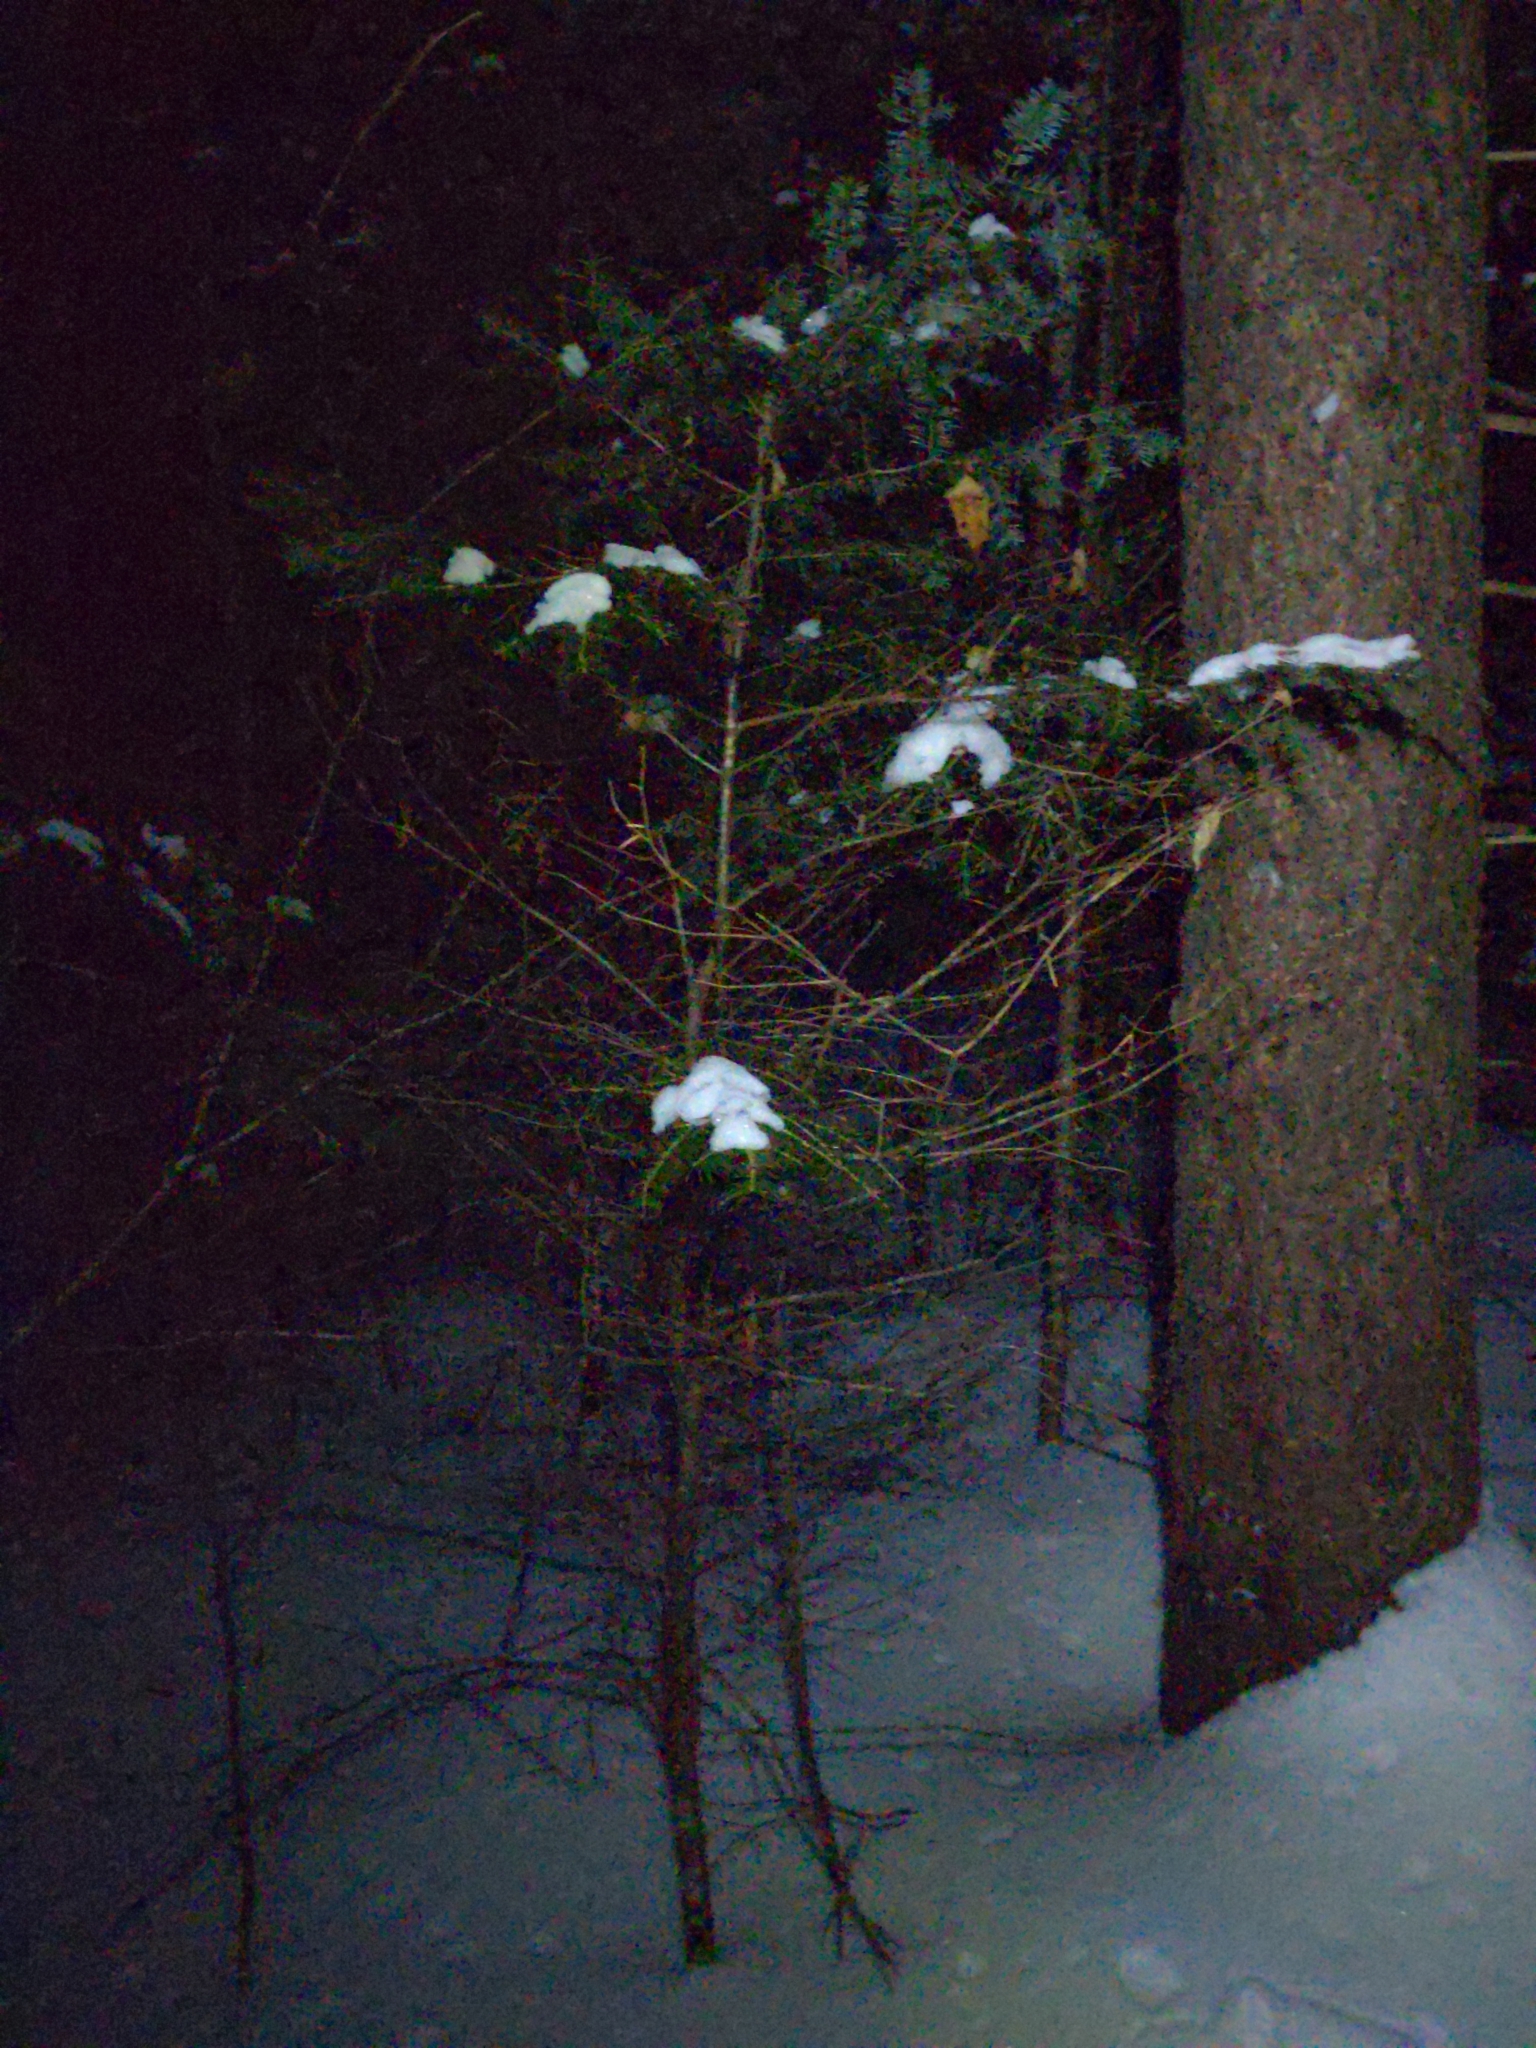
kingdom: Plantae
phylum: Tracheophyta
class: Pinopsida
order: Pinales
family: Pinaceae
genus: Abies
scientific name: Abies balsamea
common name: Balsam fir
